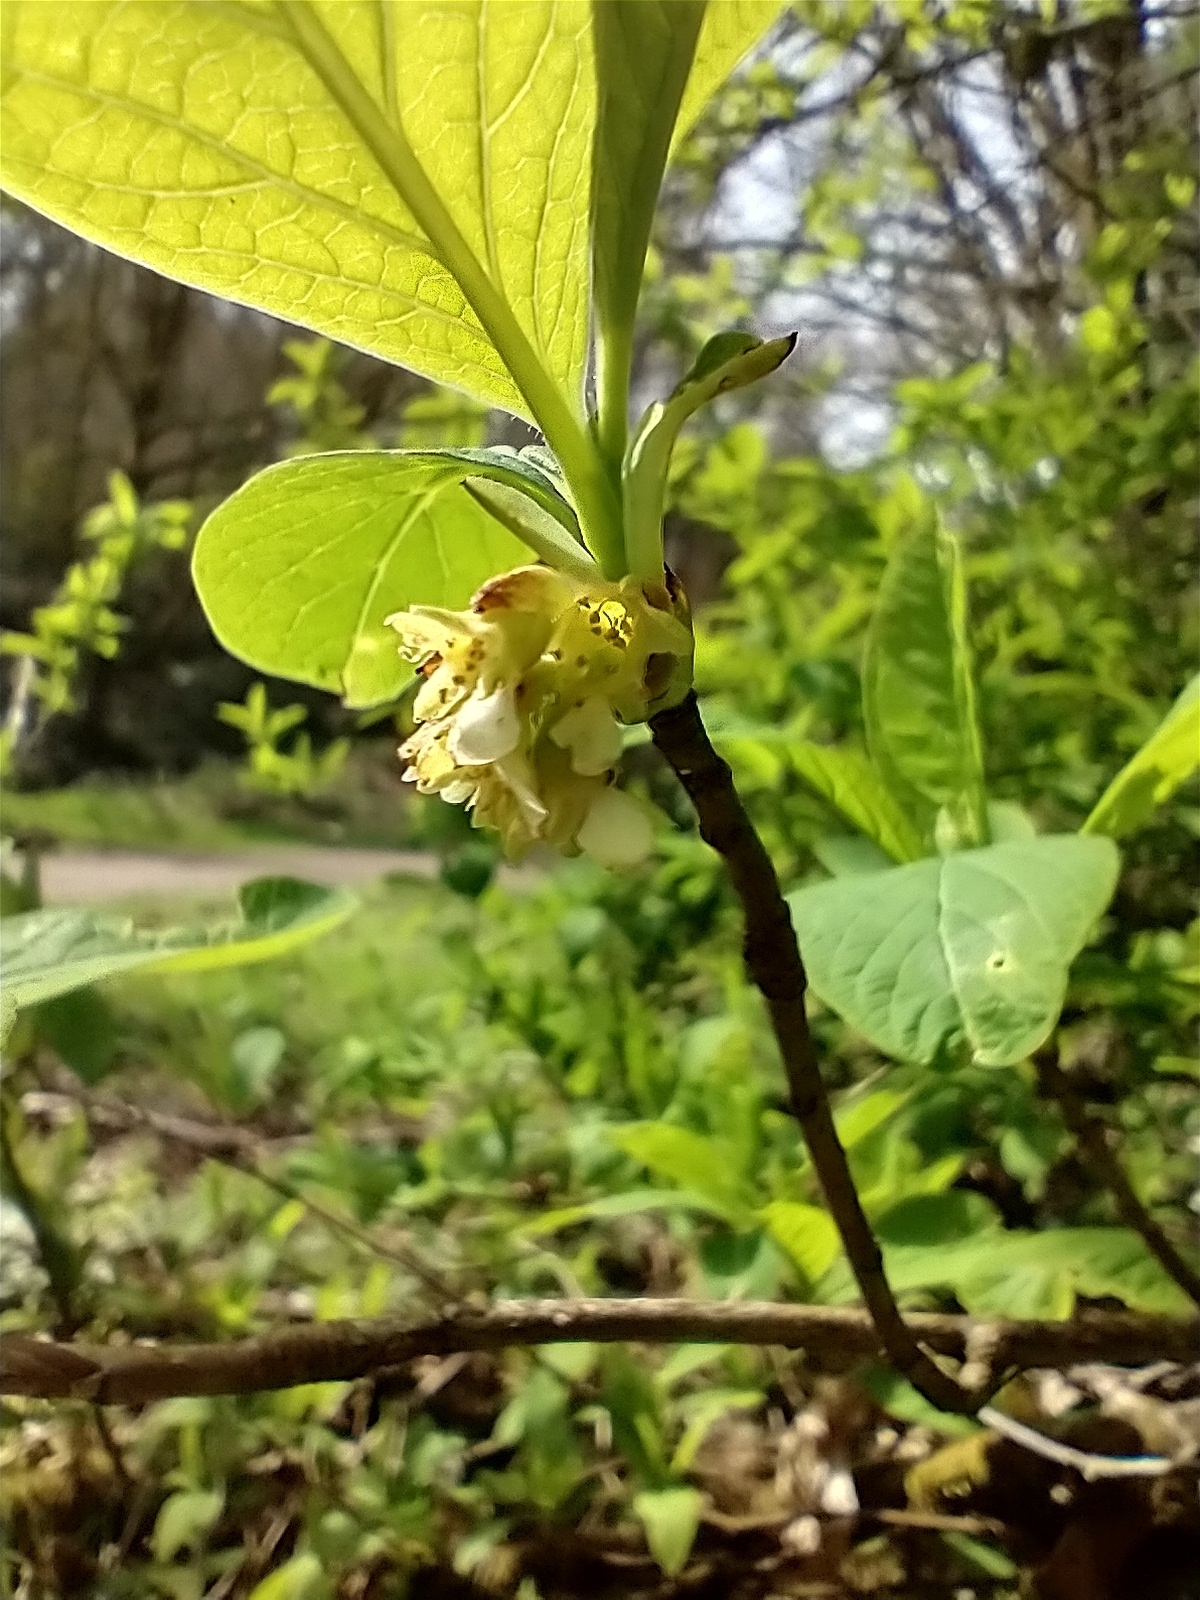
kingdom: Plantae
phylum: Tracheophyta
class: Magnoliopsida
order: Rosales
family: Rosaceae
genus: Oemleria
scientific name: Oemleria cerasiformis
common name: Osoberry
